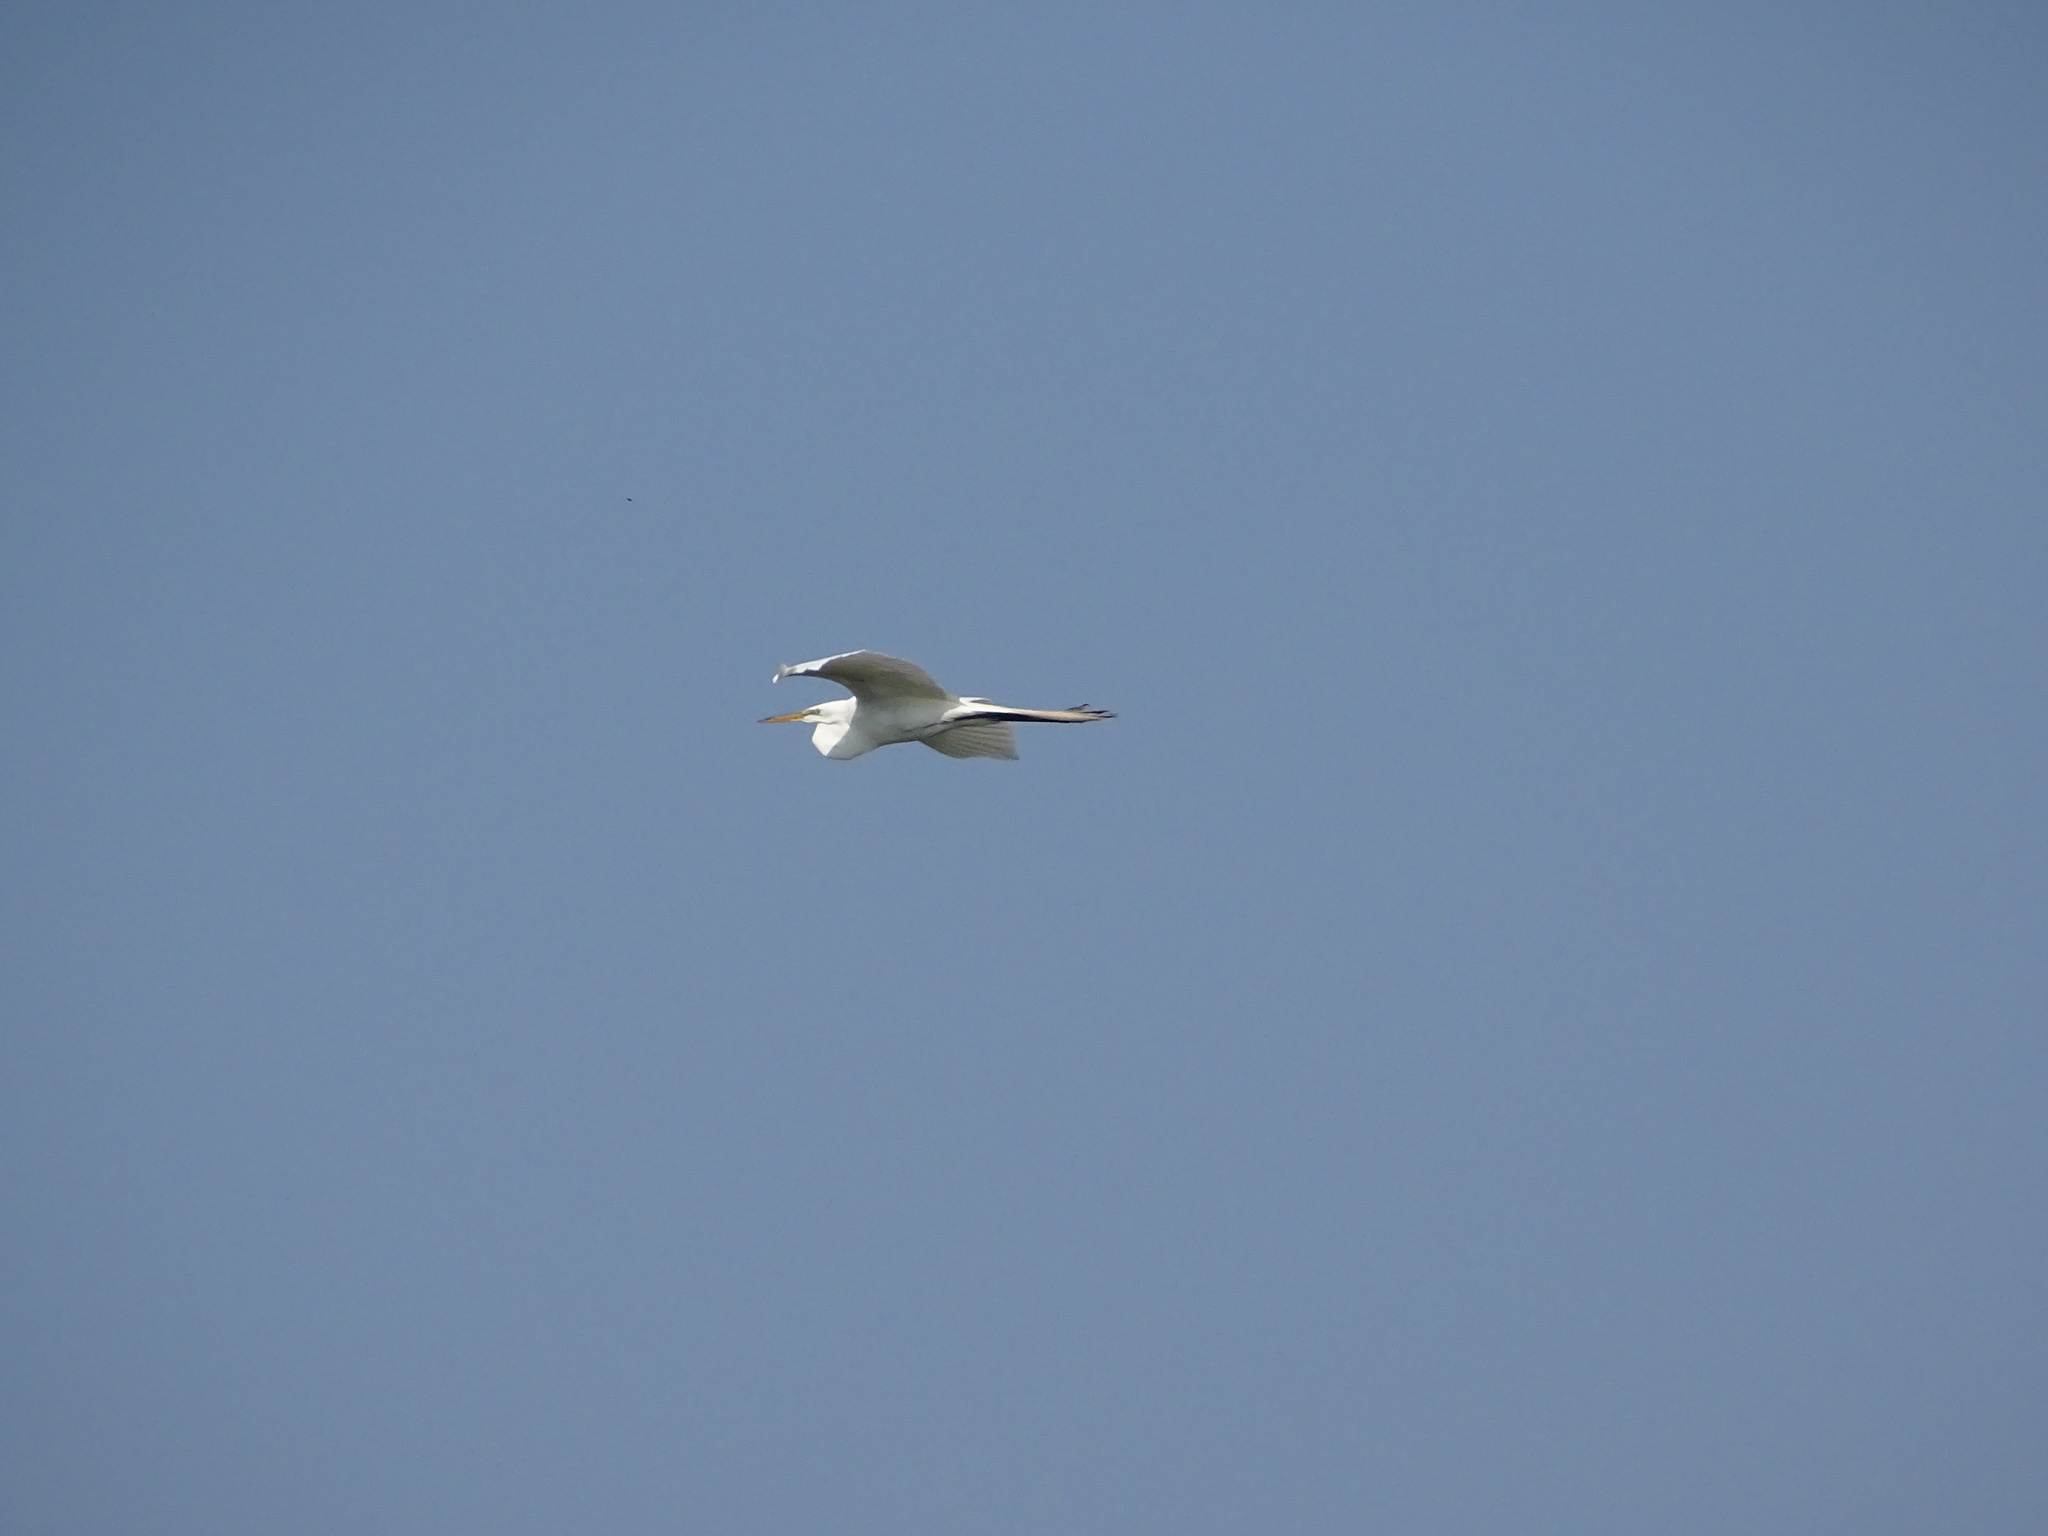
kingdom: Animalia
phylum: Chordata
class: Aves
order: Pelecaniformes
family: Ardeidae
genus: Ardea
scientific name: Ardea alba
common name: Great egret
